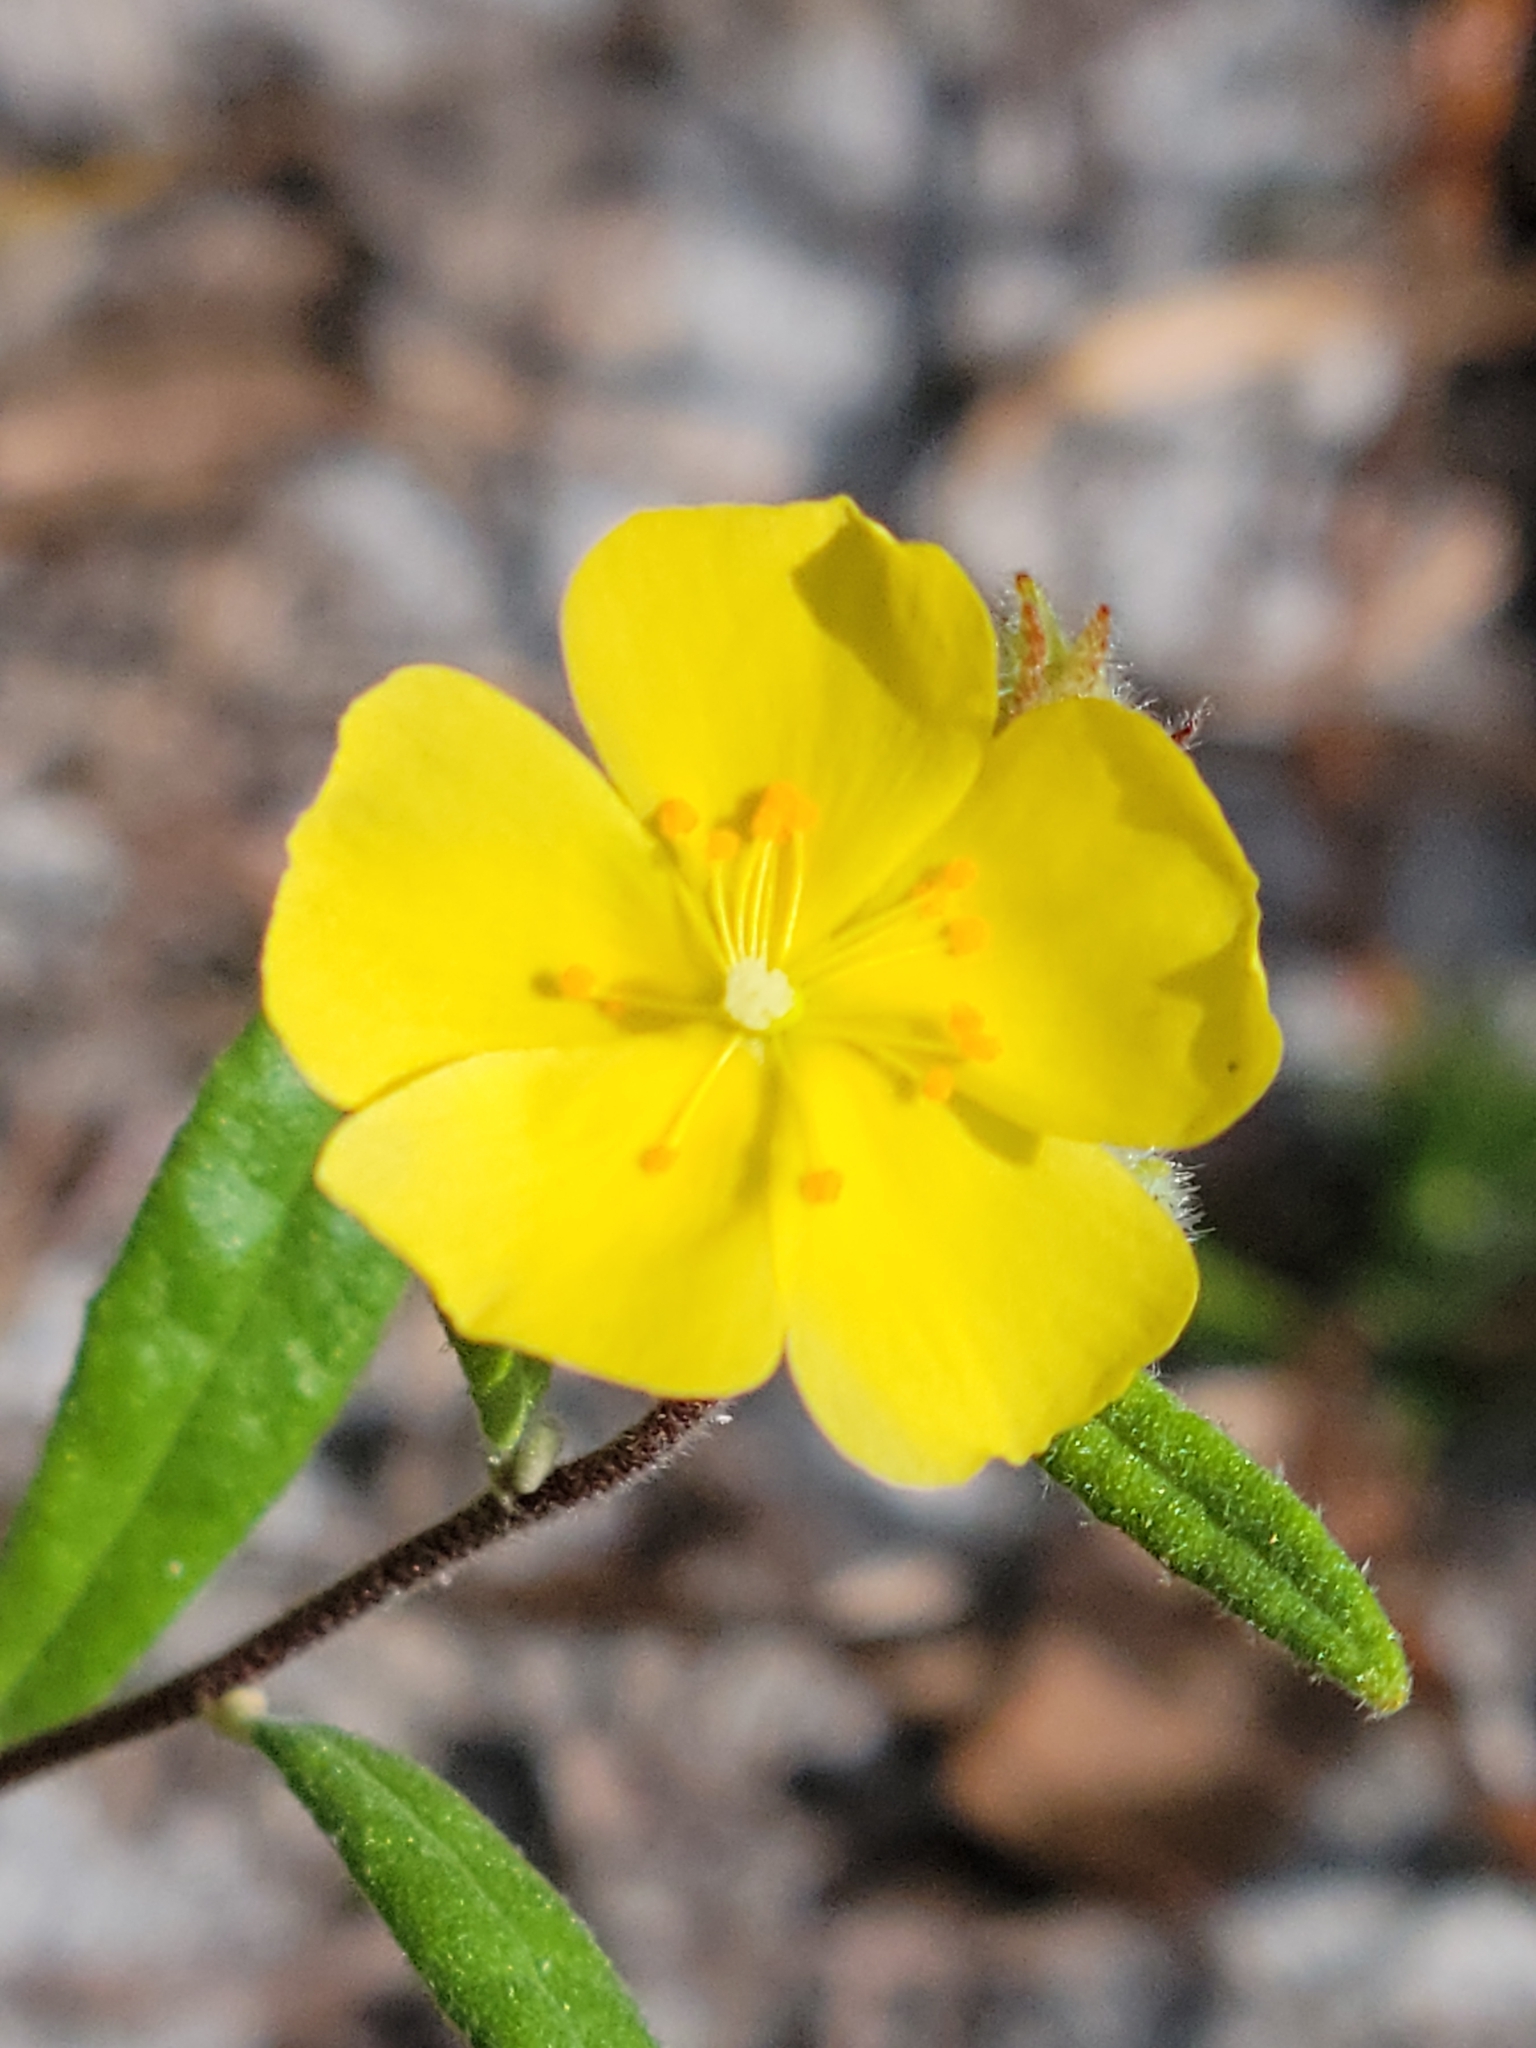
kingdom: Plantae
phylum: Tracheophyta
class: Magnoliopsida
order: Malvales
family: Cistaceae
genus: Crocanthemum
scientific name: Crocanthemum corymbosum
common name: Pinebarren sun-rose
